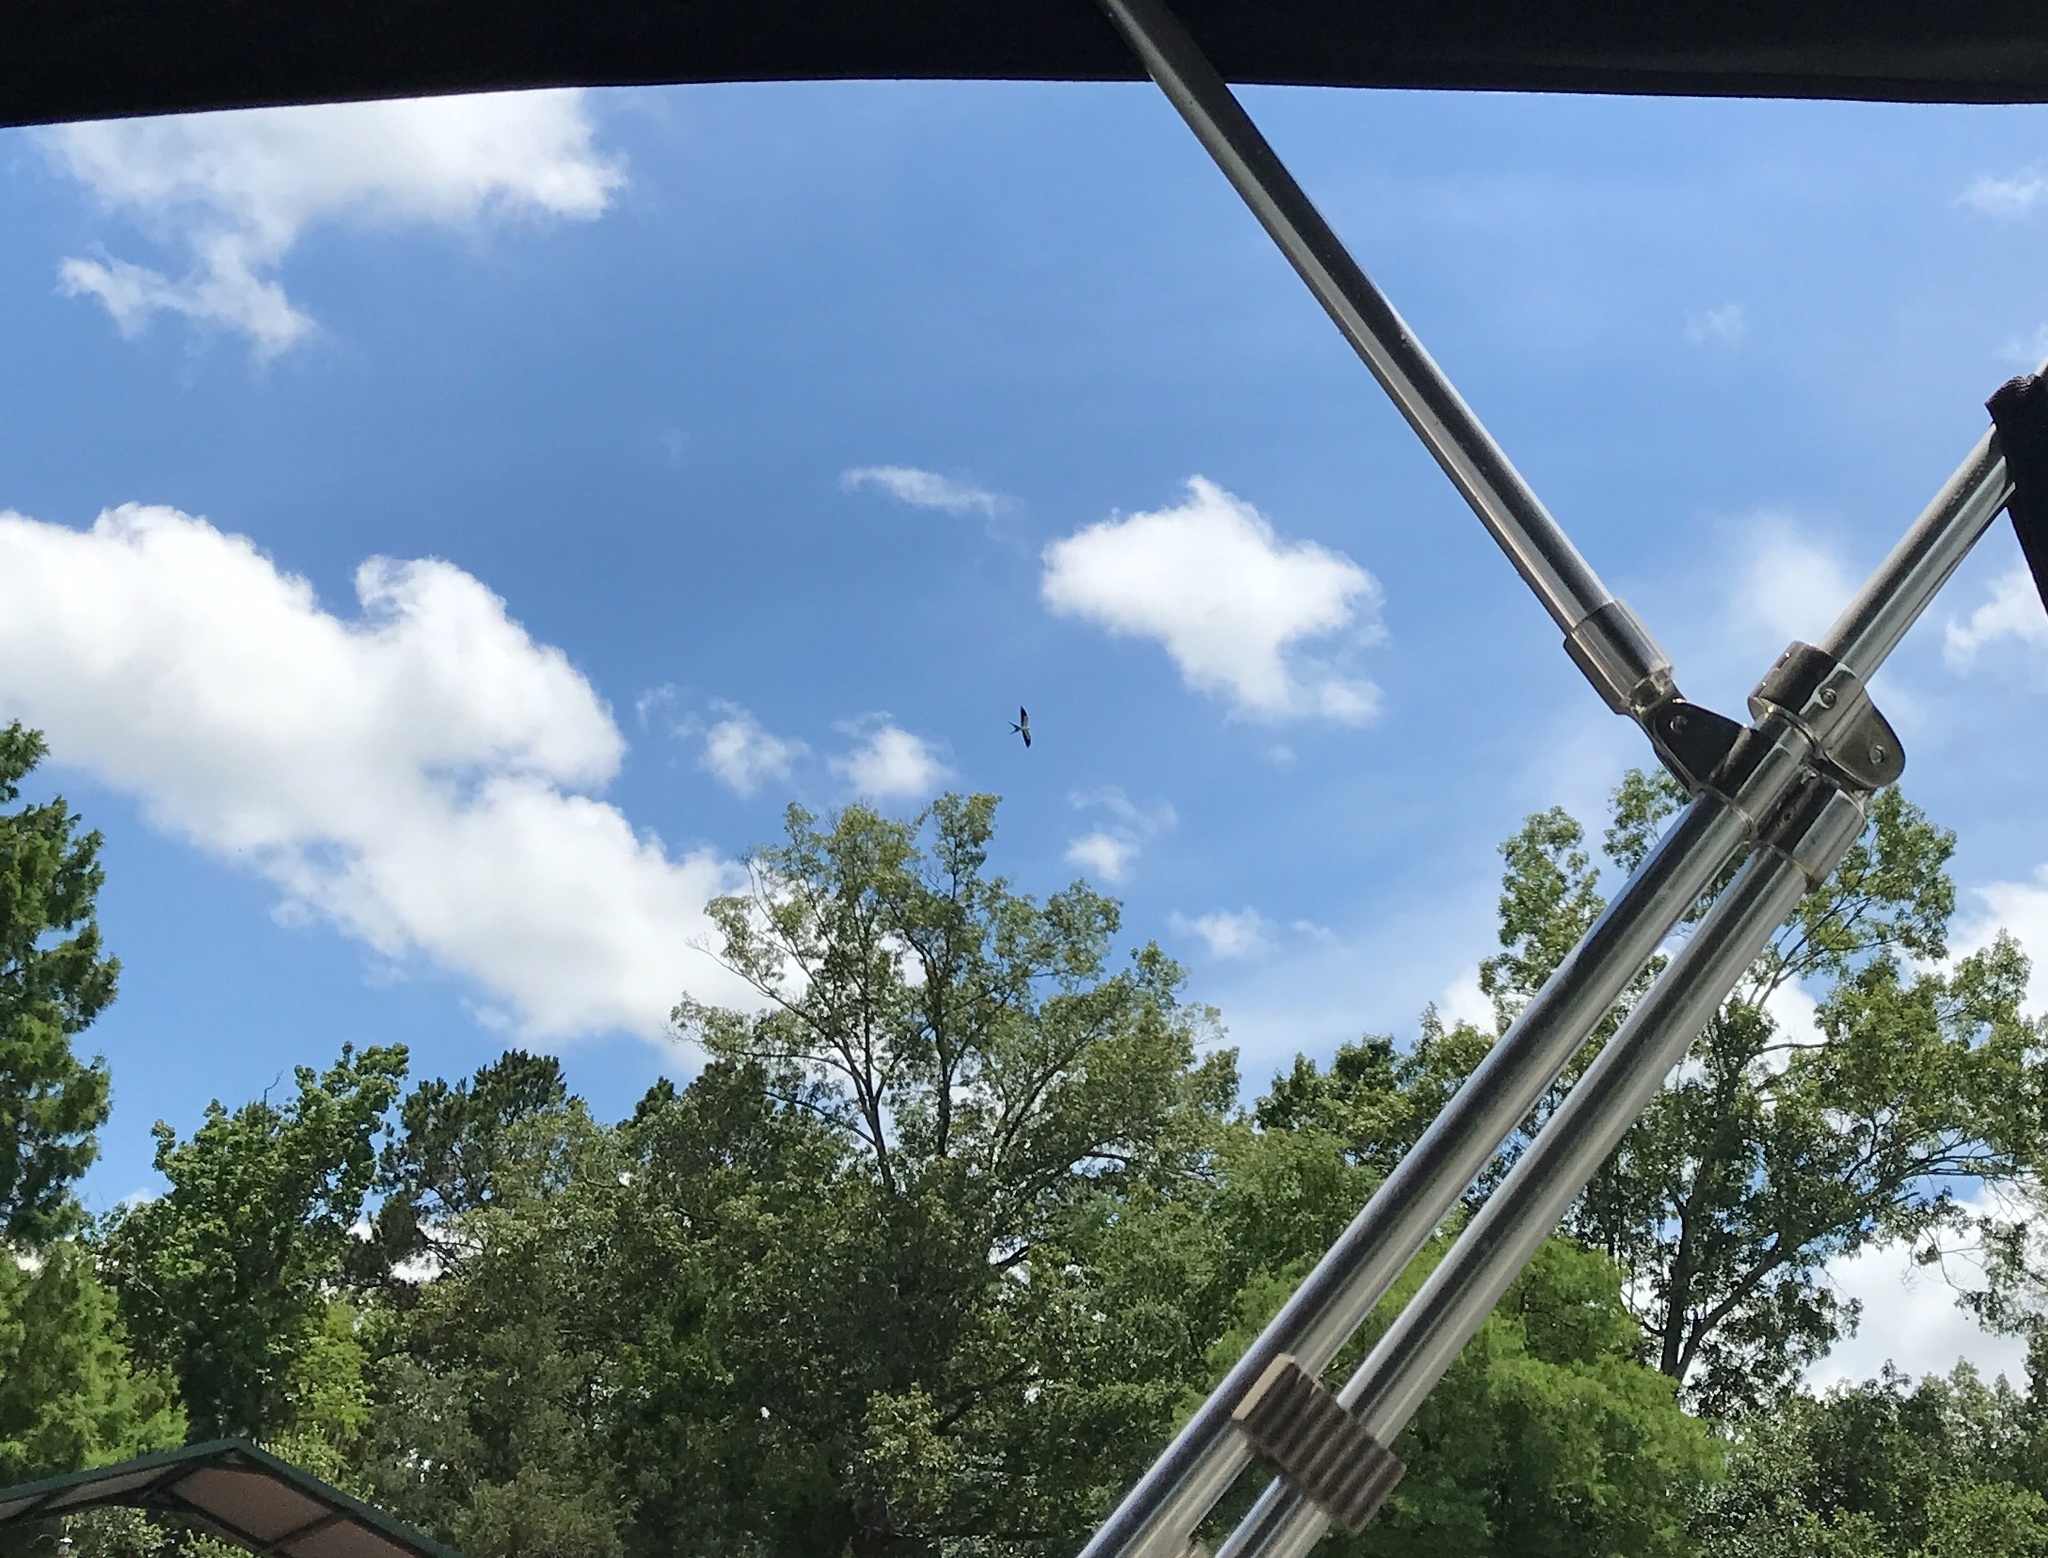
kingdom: Animalia
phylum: Chordata
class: Aves
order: Accipitriformes
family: Accipitridae
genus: Elanoides
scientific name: Elanoides forficatus
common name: Swallow-tailed kite
